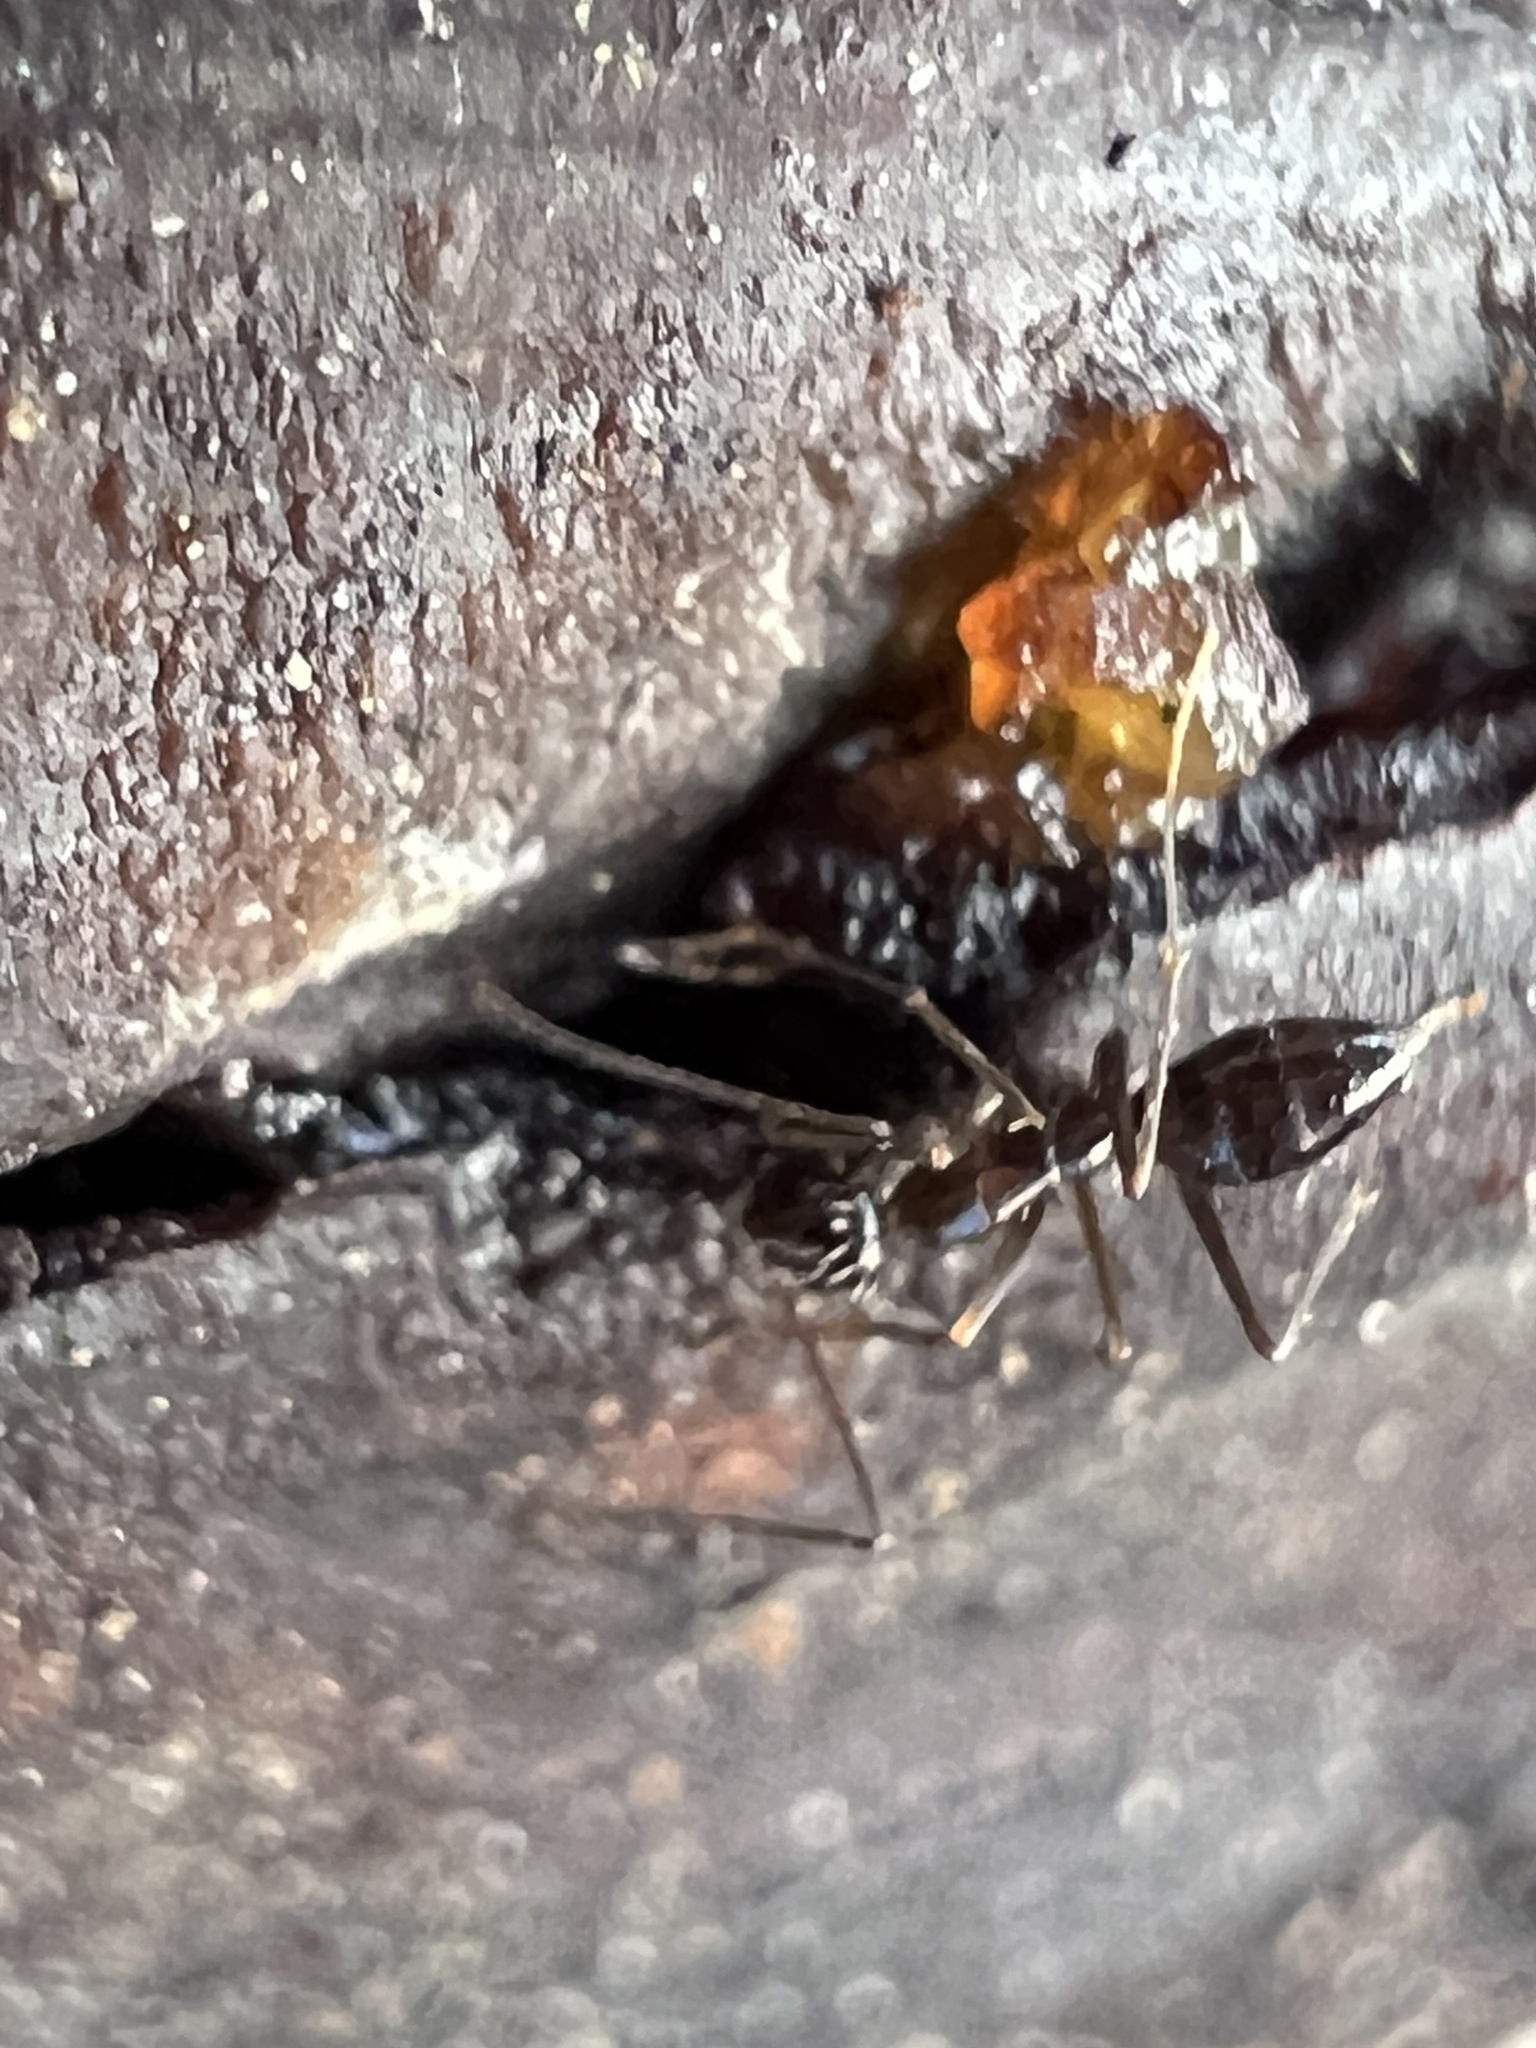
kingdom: Animalia
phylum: Arthropoda
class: Insecta
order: Hymenoptera
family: Formicidae
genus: Paratrechina
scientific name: Paratrechina longicornis
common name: Longhorned crazy ant
